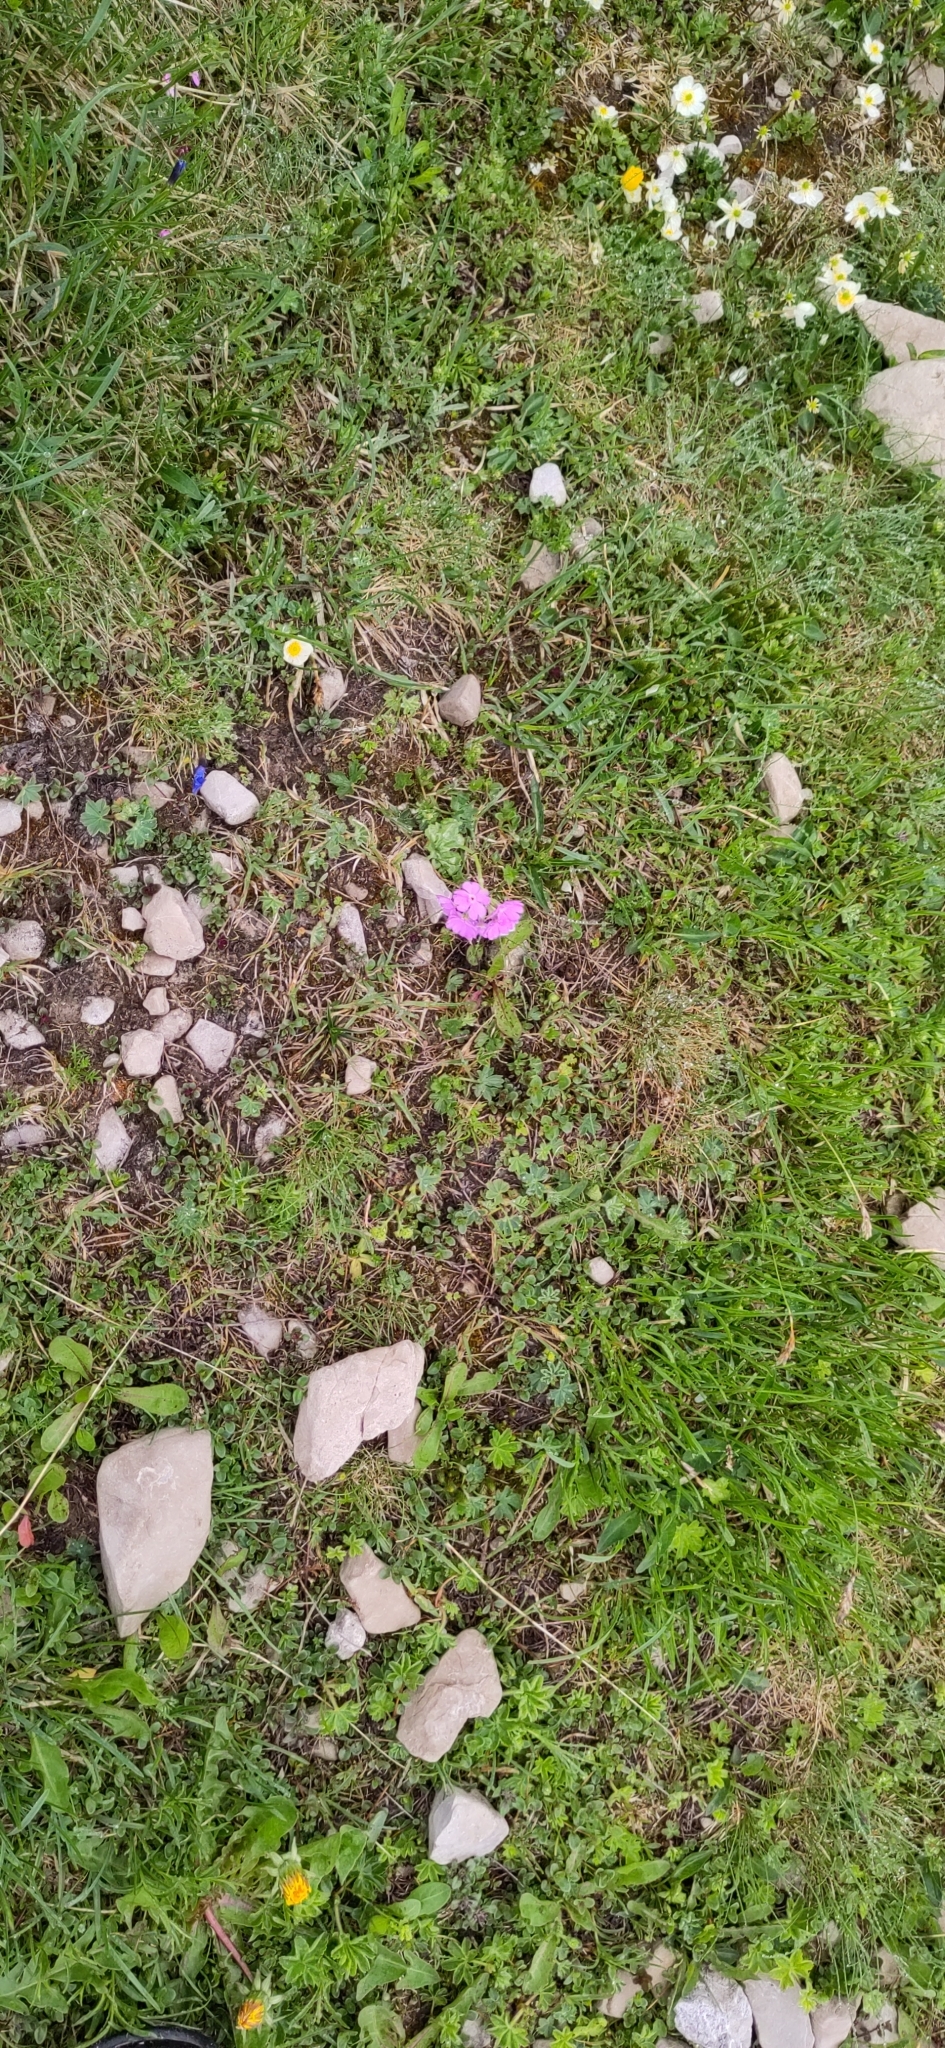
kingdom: Plantae
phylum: Tracheophyta
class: Magnoliopsida
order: Ericales
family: Primulaceae
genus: Primula
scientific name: Primula farinosa
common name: Bird's-eye primrose
